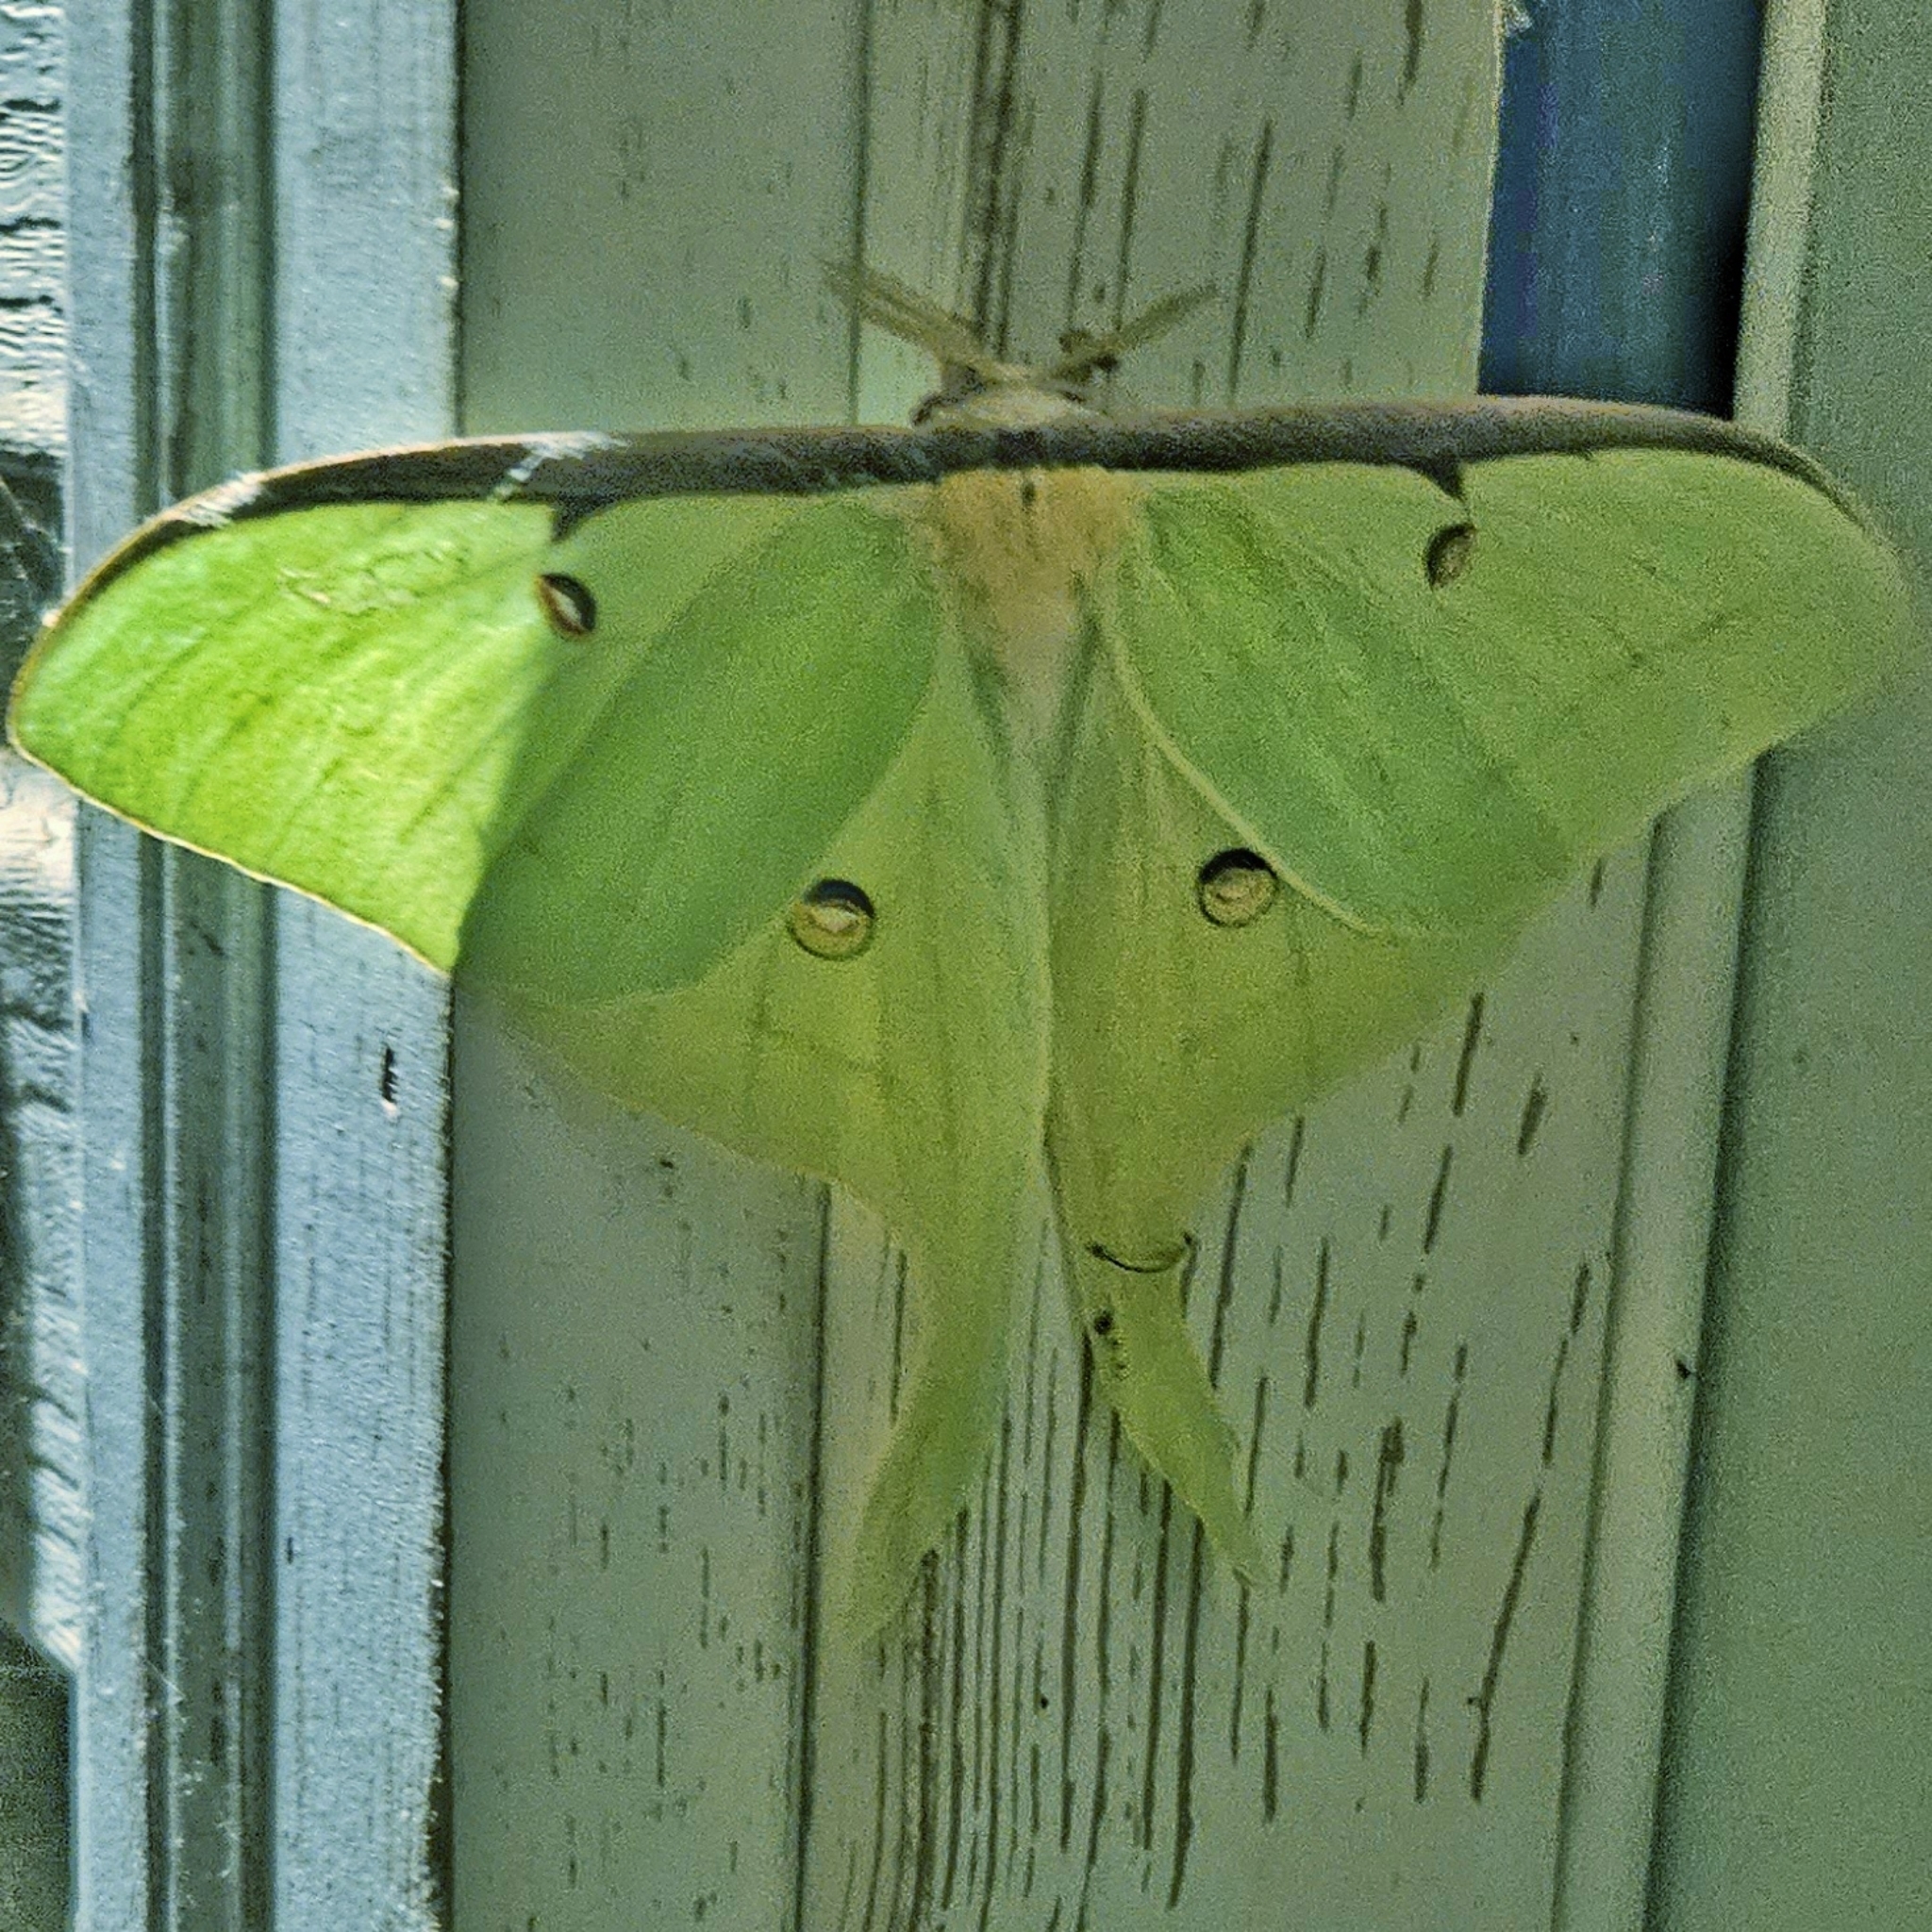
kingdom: Animalia
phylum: Arthropoda
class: Insecta
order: Lepidoptera
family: Saturniidae
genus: Actias
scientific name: Actias luna
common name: Luna moth
